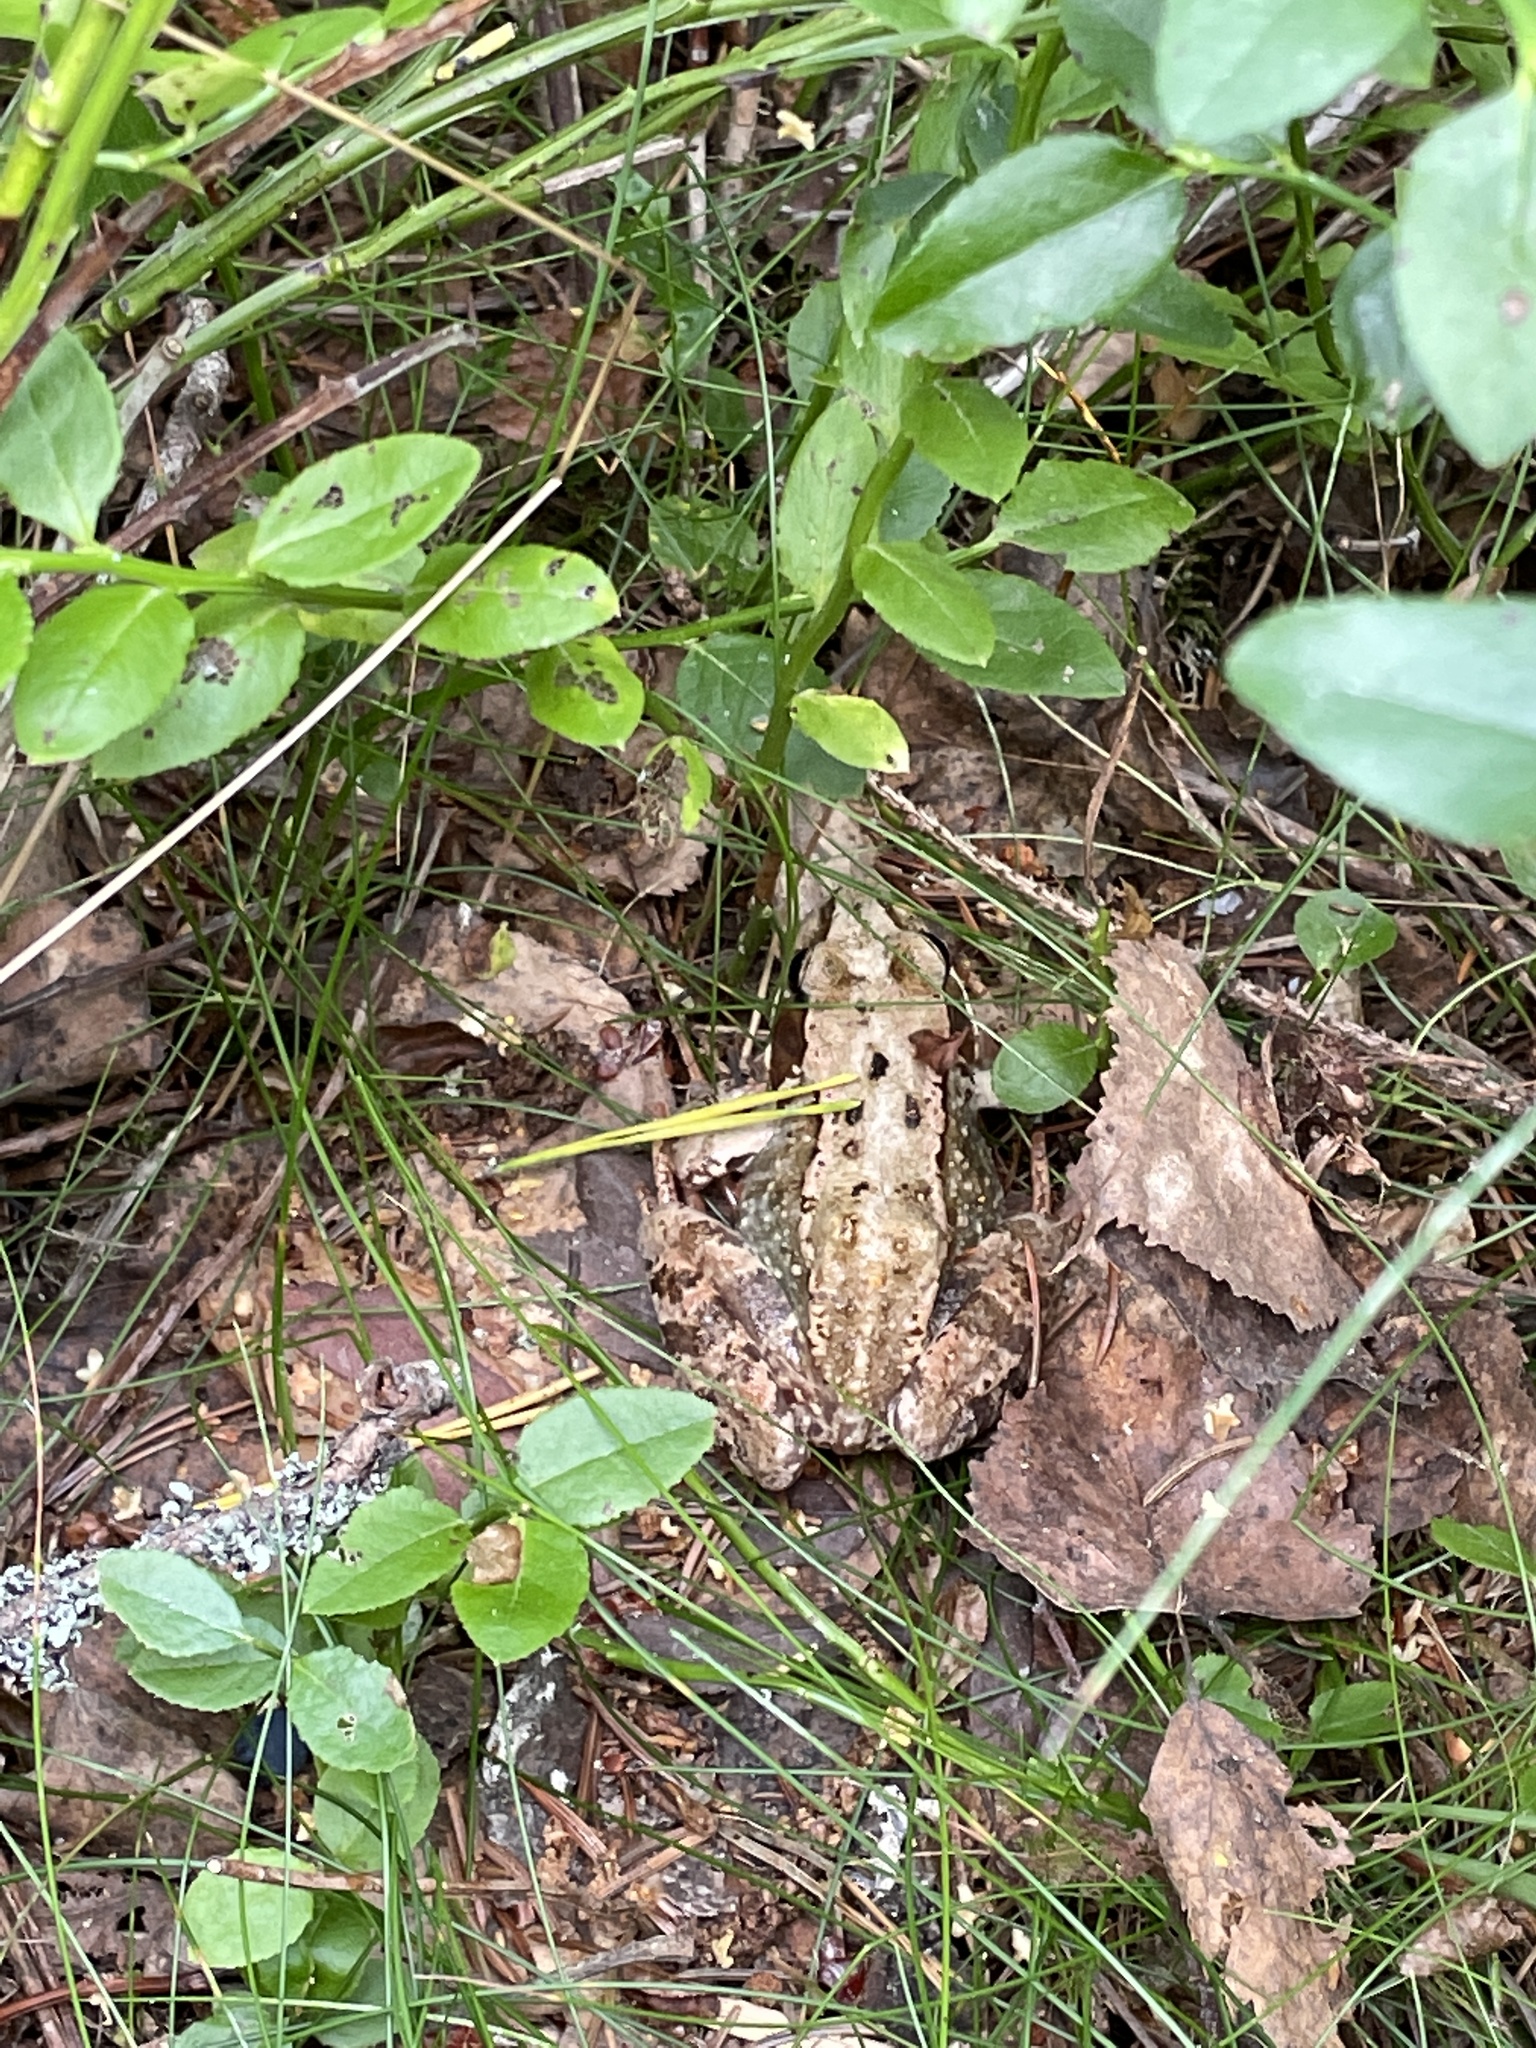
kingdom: Animalia
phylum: Chordata
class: Amphibia
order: Anura
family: Ranidae
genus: Rana
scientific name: Rana temporaria
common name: Common frog
